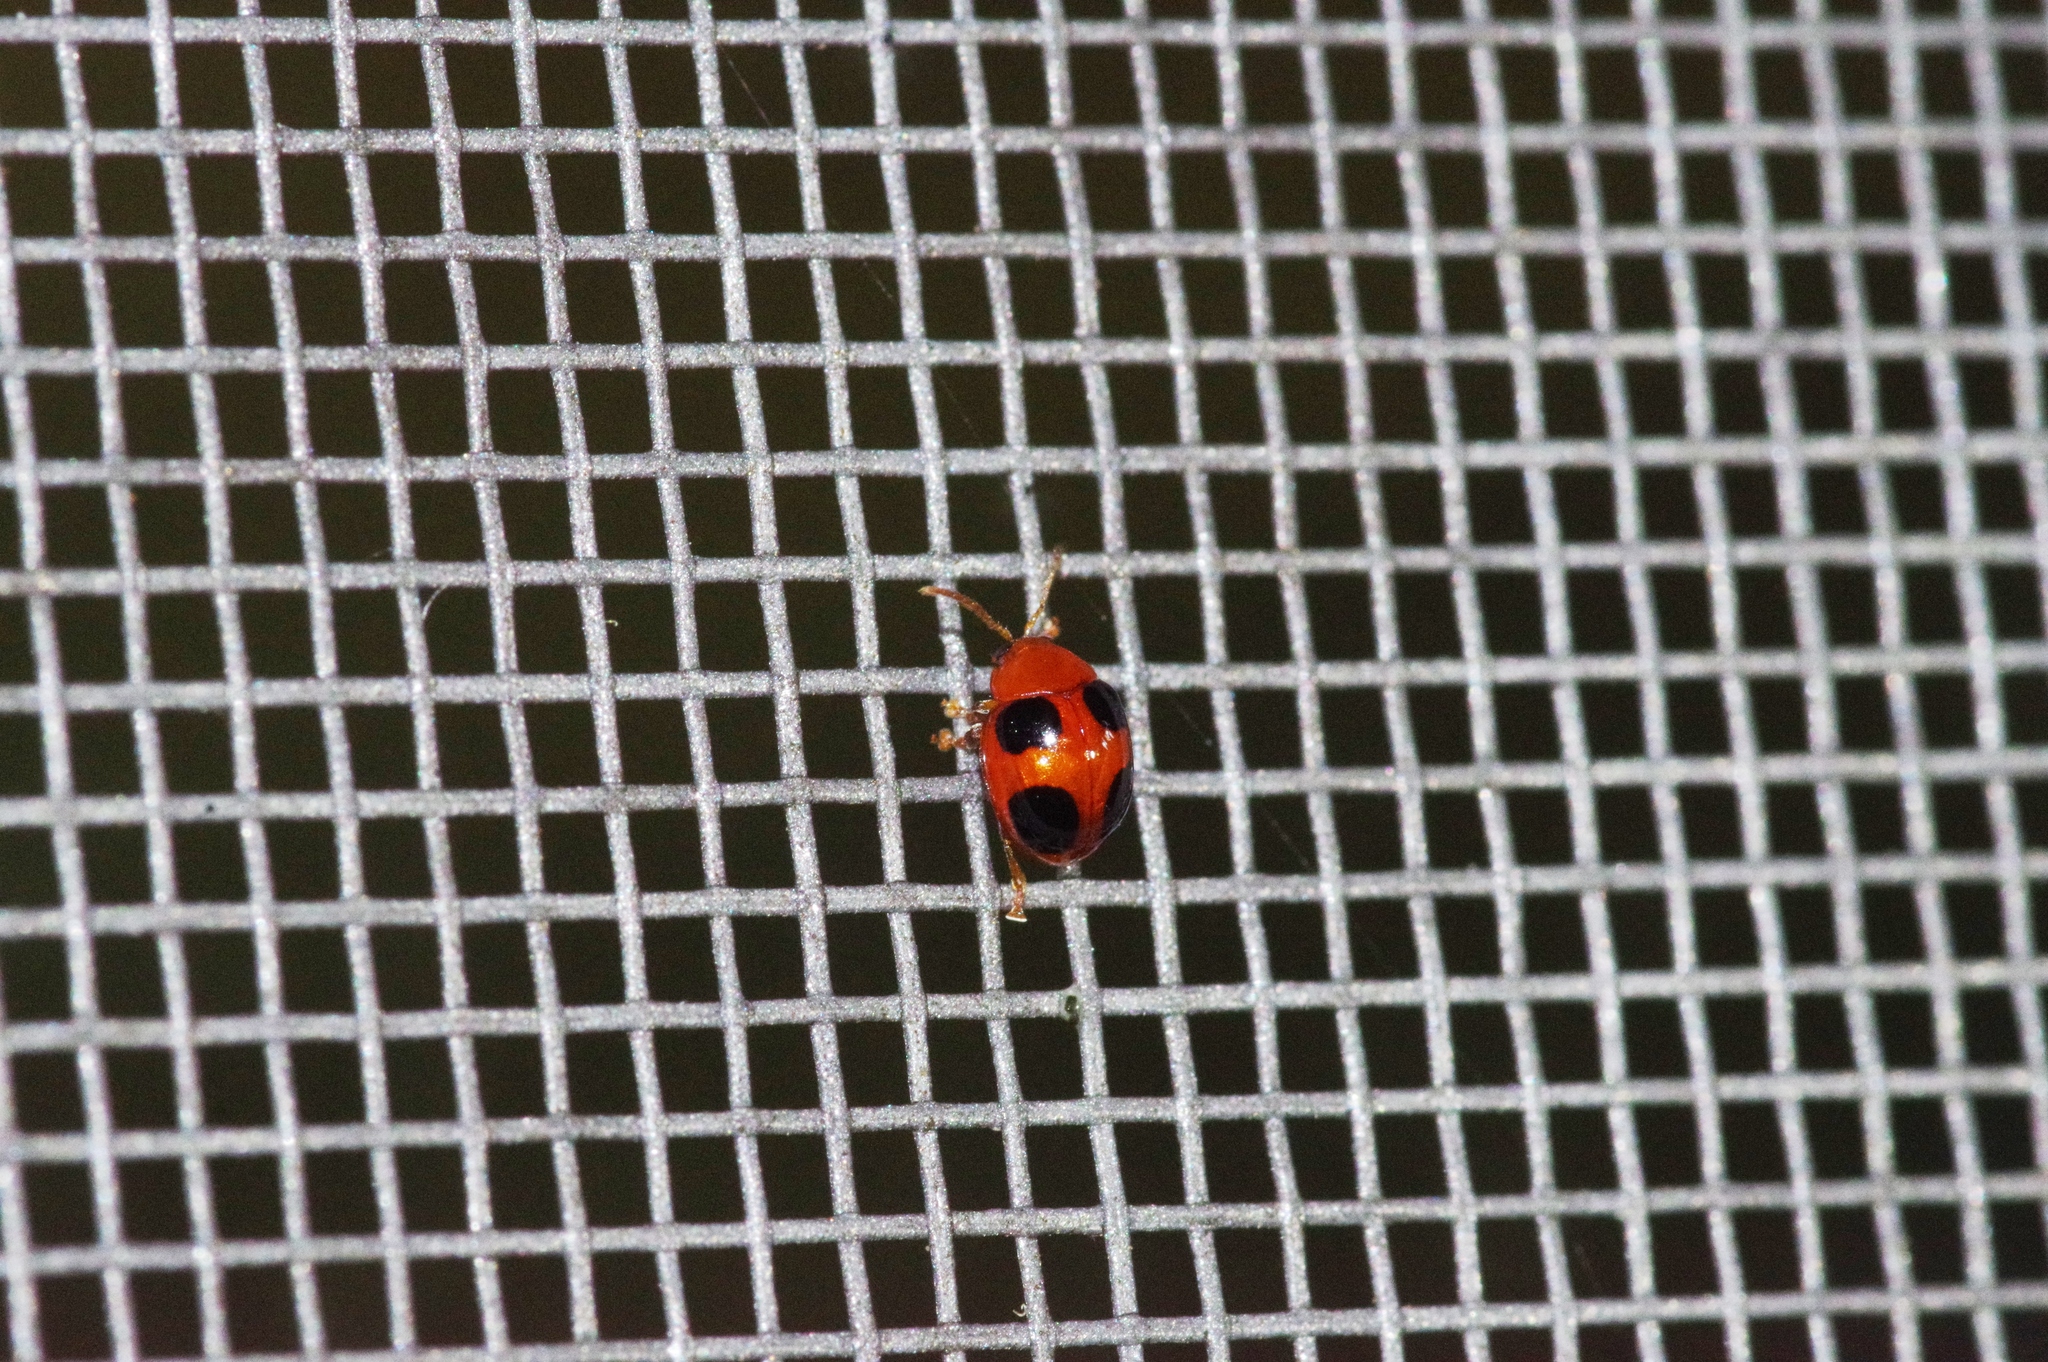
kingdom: Animalia
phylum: Arthropoda
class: Insecta
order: Coleoptera
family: Chrysomelidae
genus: Sphaeroderma
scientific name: Sphaeroderma
